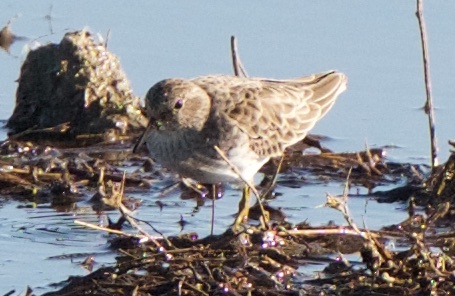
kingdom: Animalia
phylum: Chordata
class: Aves
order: Charadriiformes
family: Scolopacidae
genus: Calidris
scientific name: Calidris minutilla
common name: Least sandpiper
